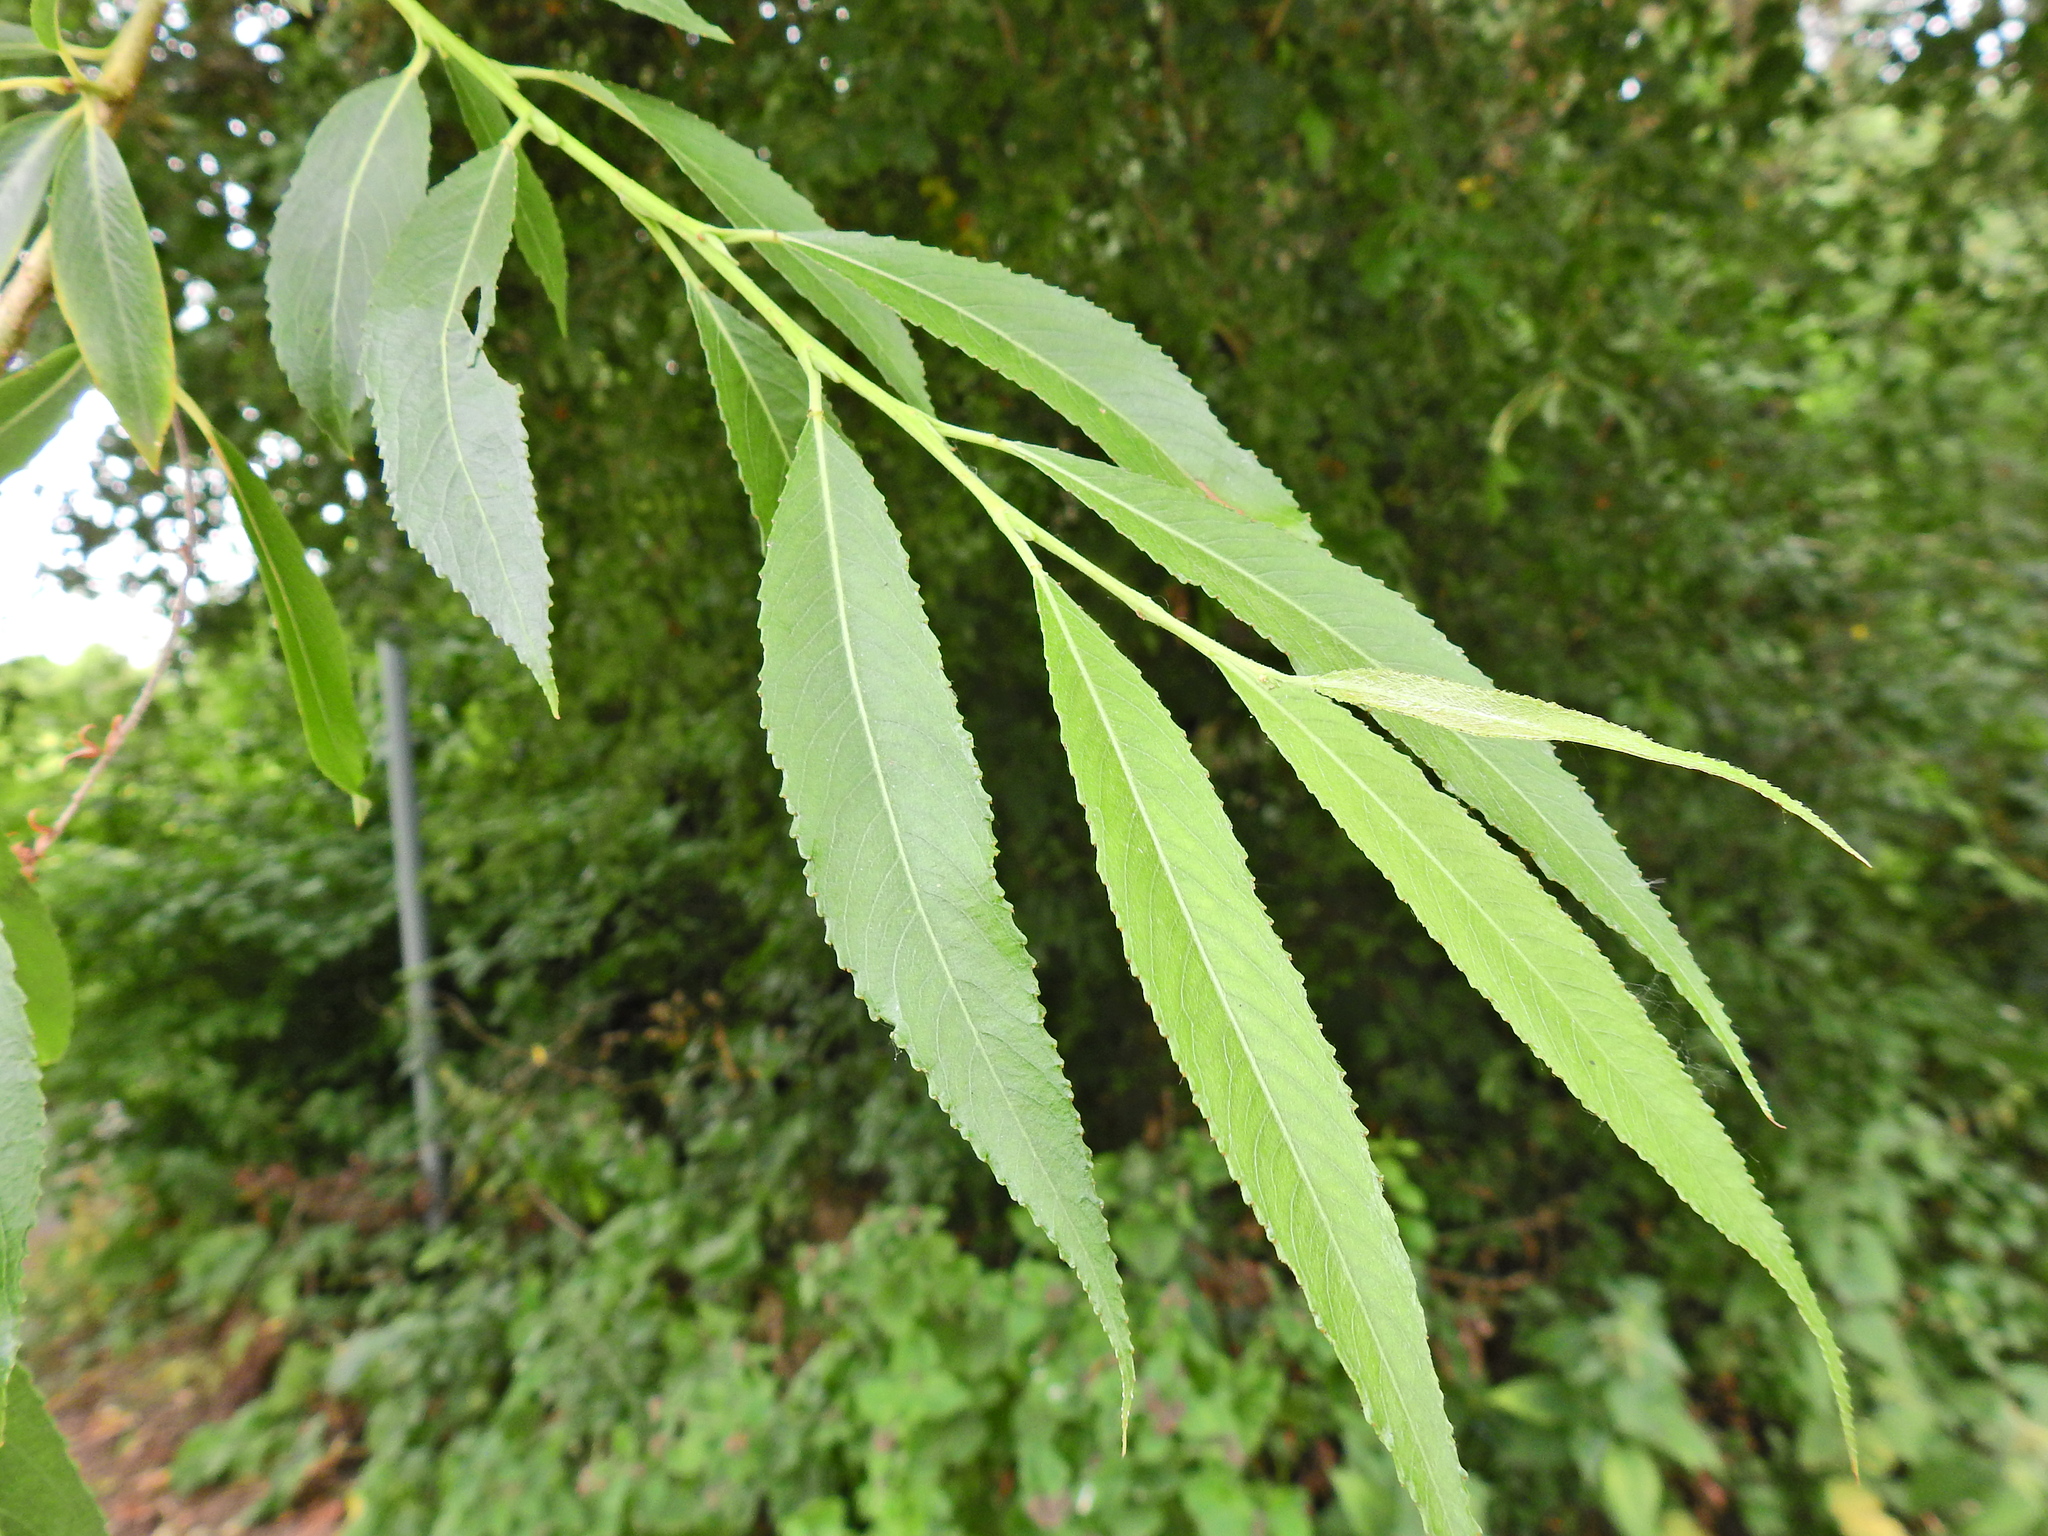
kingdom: Plantae
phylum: Tracheophyta
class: Magnoliopsida
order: Malpighiales
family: Salicaceae
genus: Salix
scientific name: Salix fragilis
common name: Crack willow
